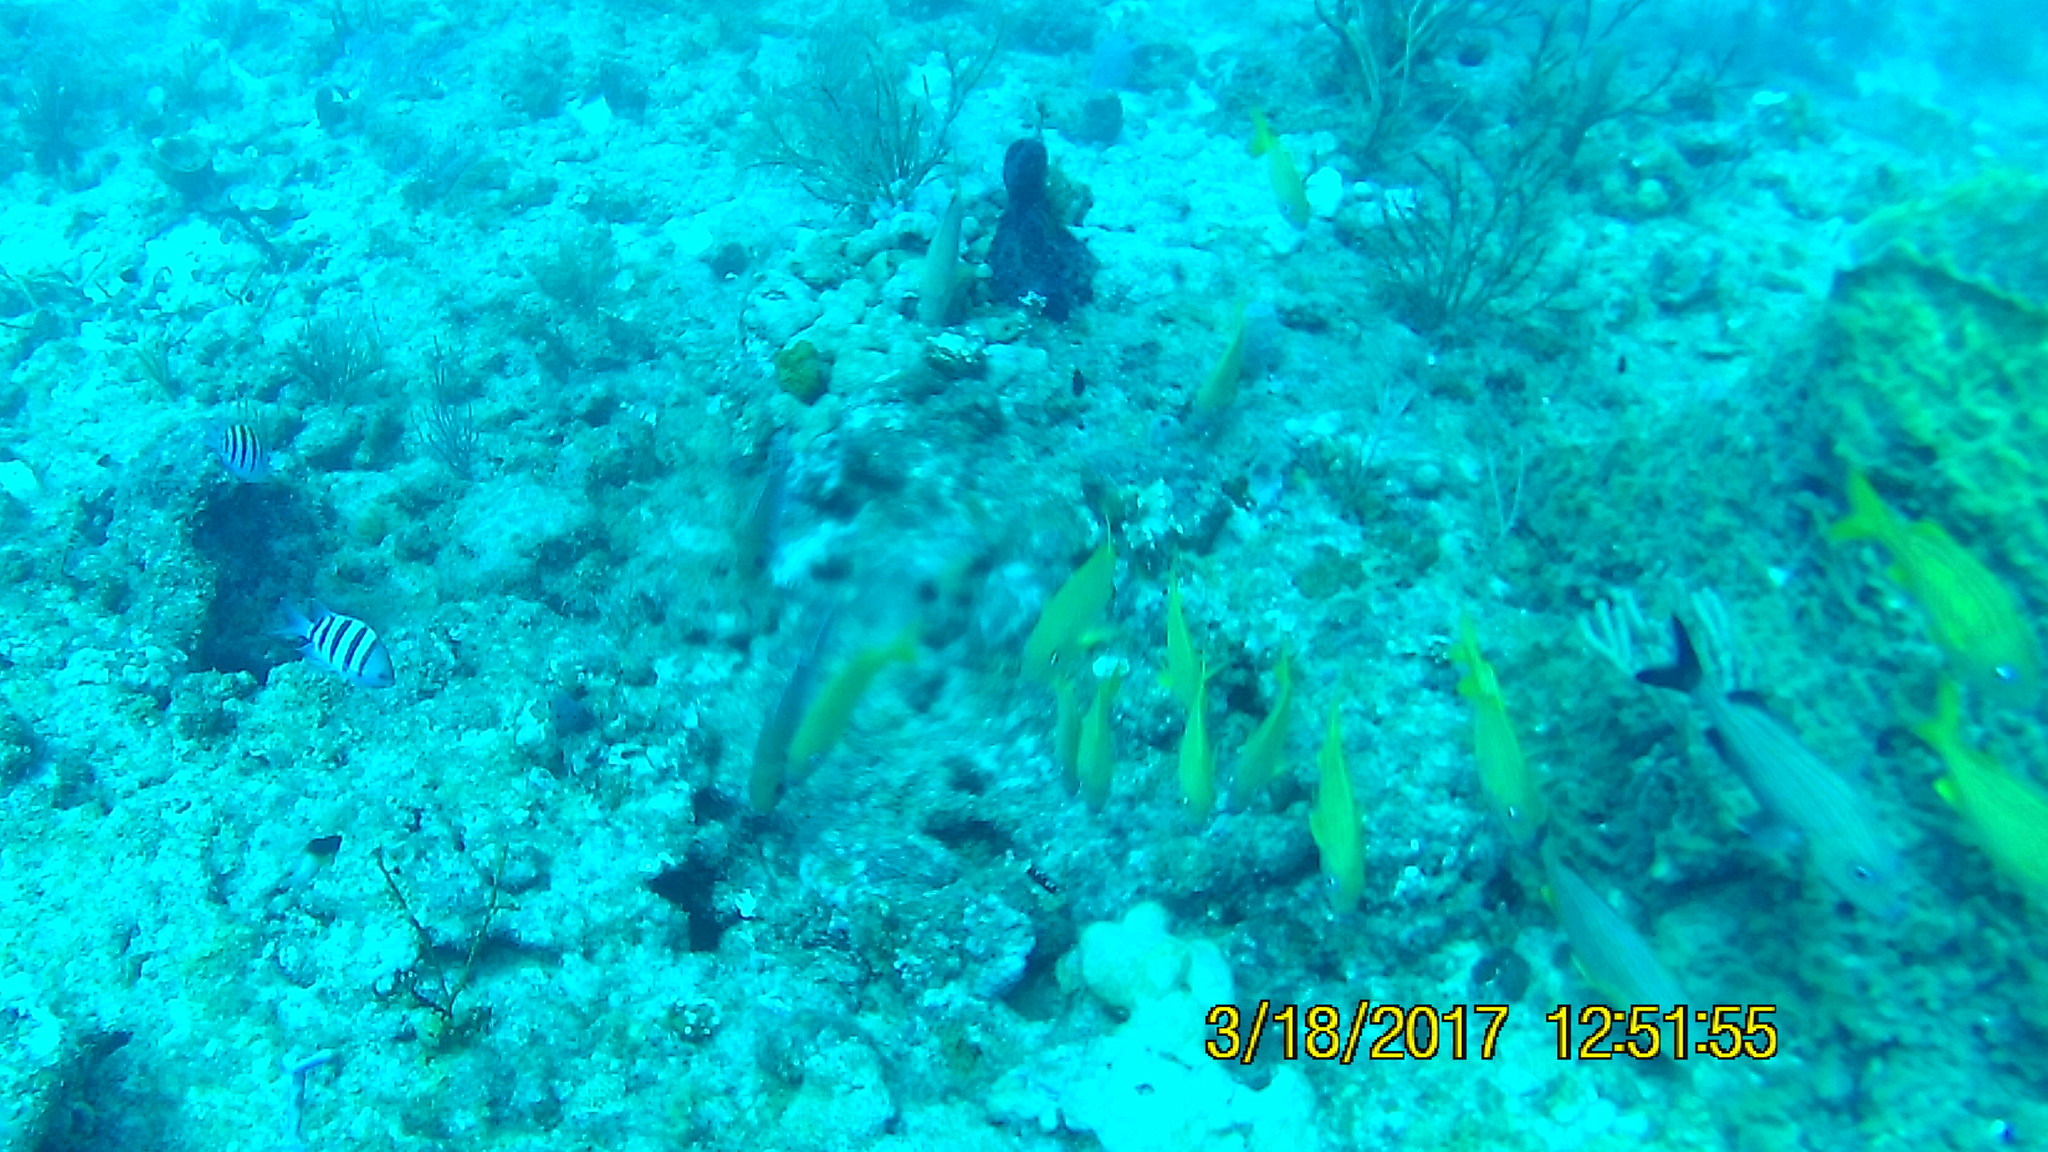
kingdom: Animalia
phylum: Chordata
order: Perciformes
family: Haemulidae
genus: Haemulon
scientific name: Haemulon flavolineatum
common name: French grunt
